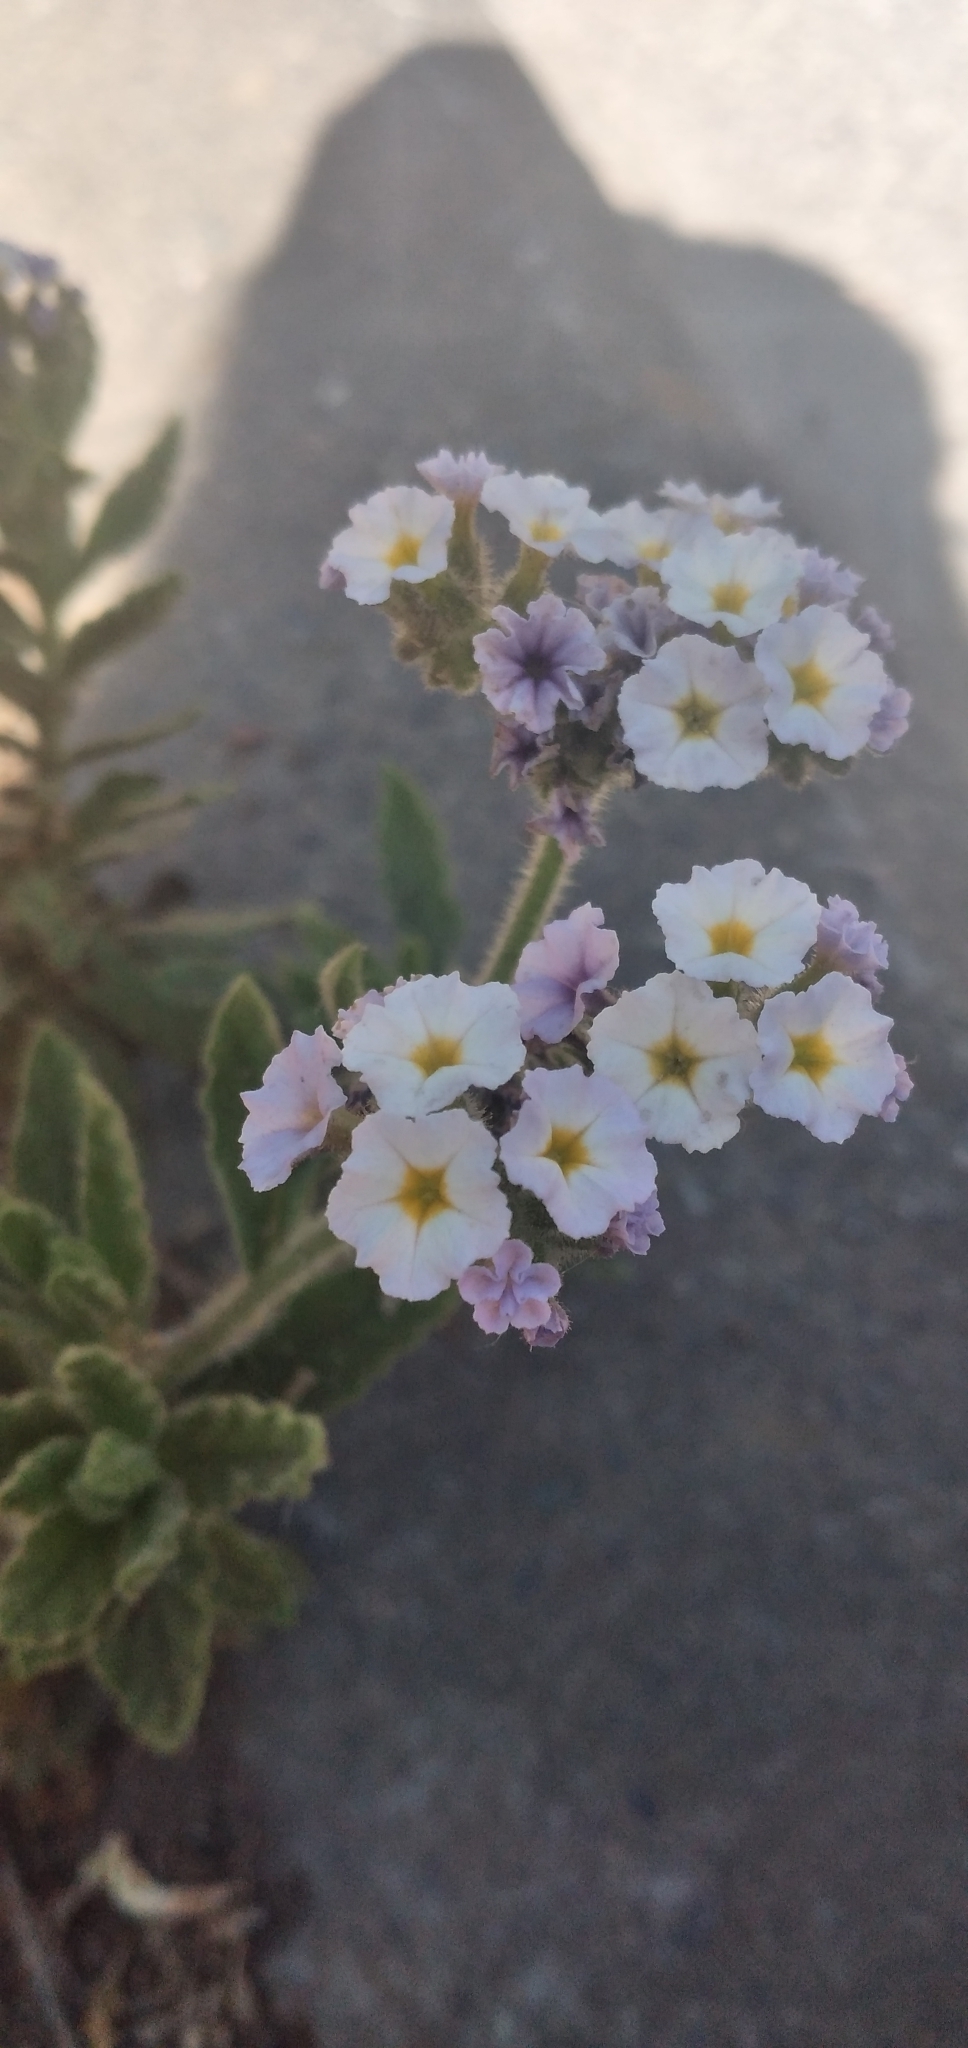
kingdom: Plantae
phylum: Tracheophyta
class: Magnoliopsida
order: Boraginales
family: Heliotropiaceae
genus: Heliotropium
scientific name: Heliotropium amplexicaule
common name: Clasping heliotrope
